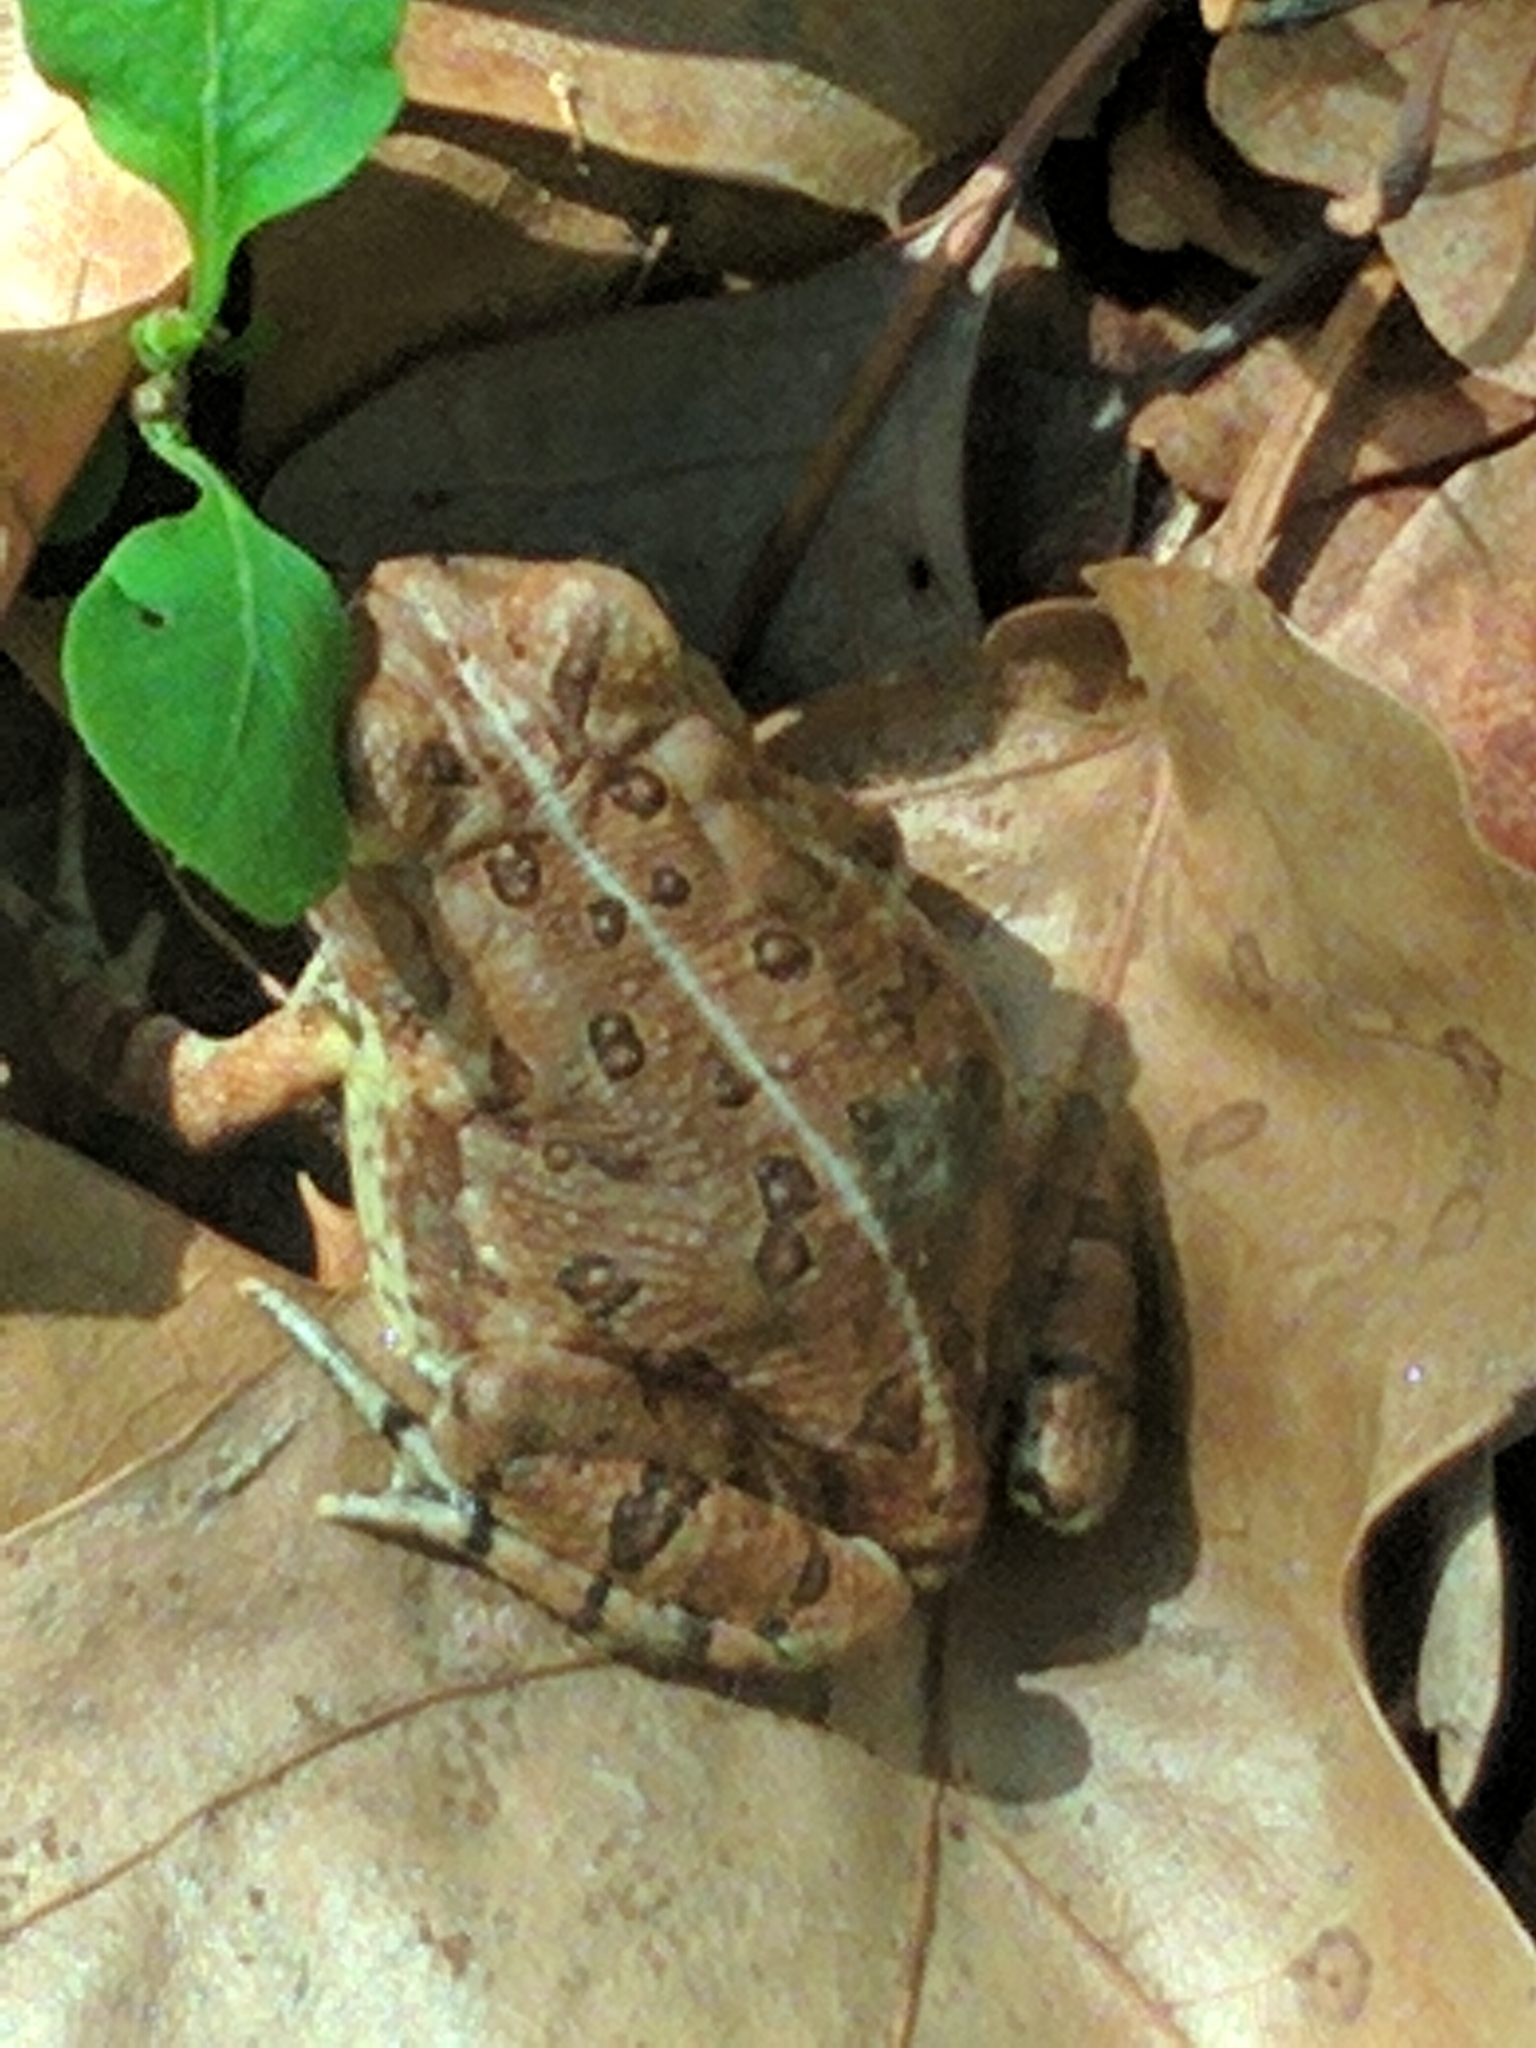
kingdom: Animalia
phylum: Chordata
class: Amphibia
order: Anura
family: Bufonidae
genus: Anaxyrus
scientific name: Anaxyrus fowleri
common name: Fowler's toad
